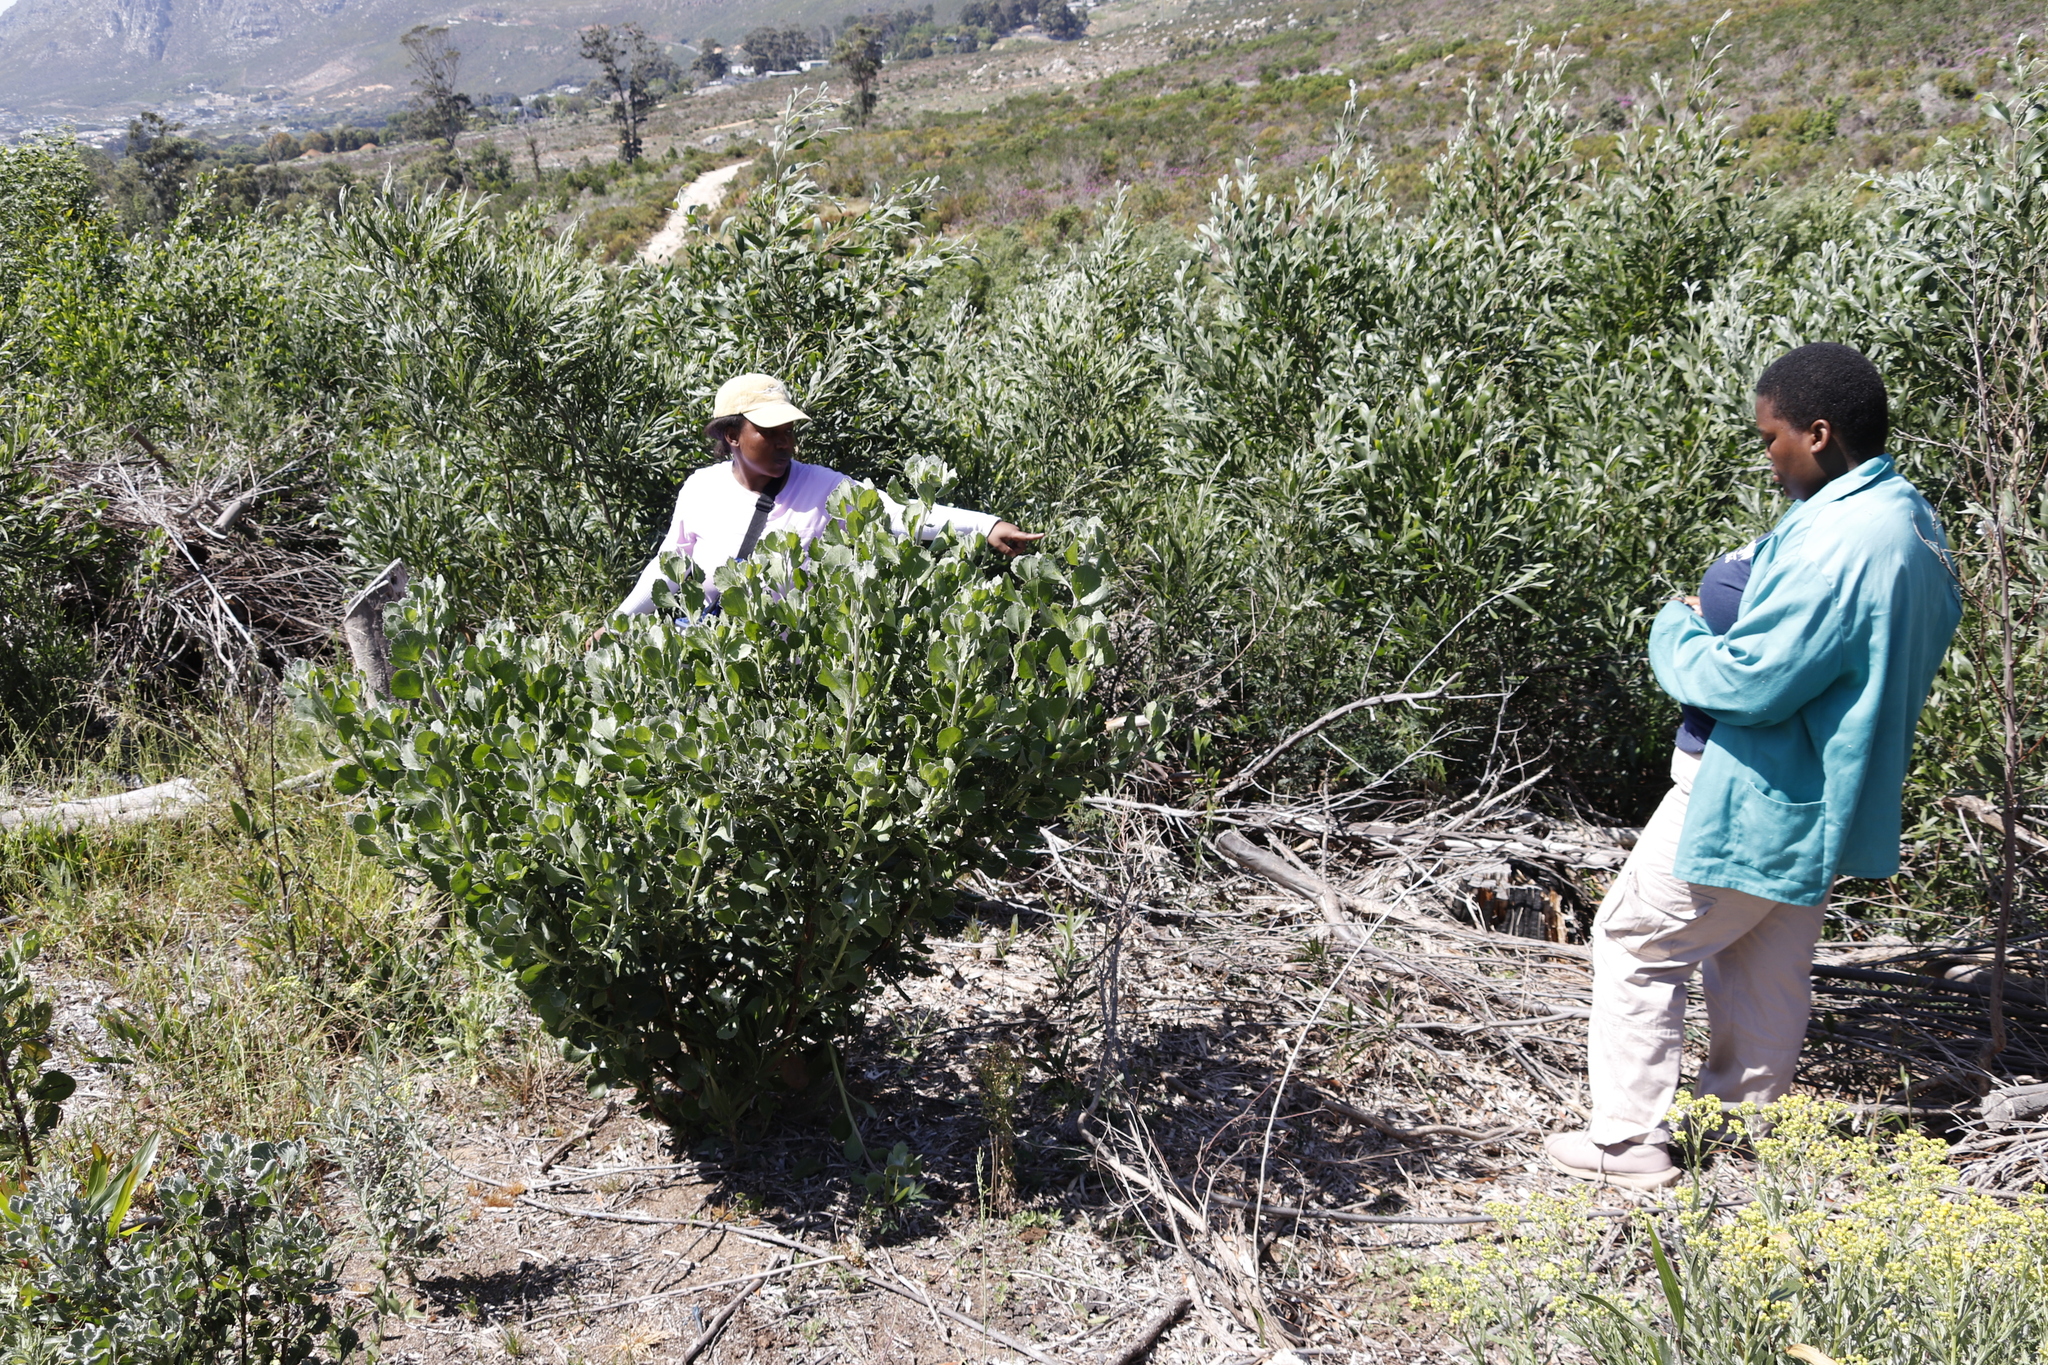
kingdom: Plantae
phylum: Tracheophyta
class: Magnoliopsida
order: Asterales
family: Asteraceae
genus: Osteospermum
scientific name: Osteospermum moniliferum
